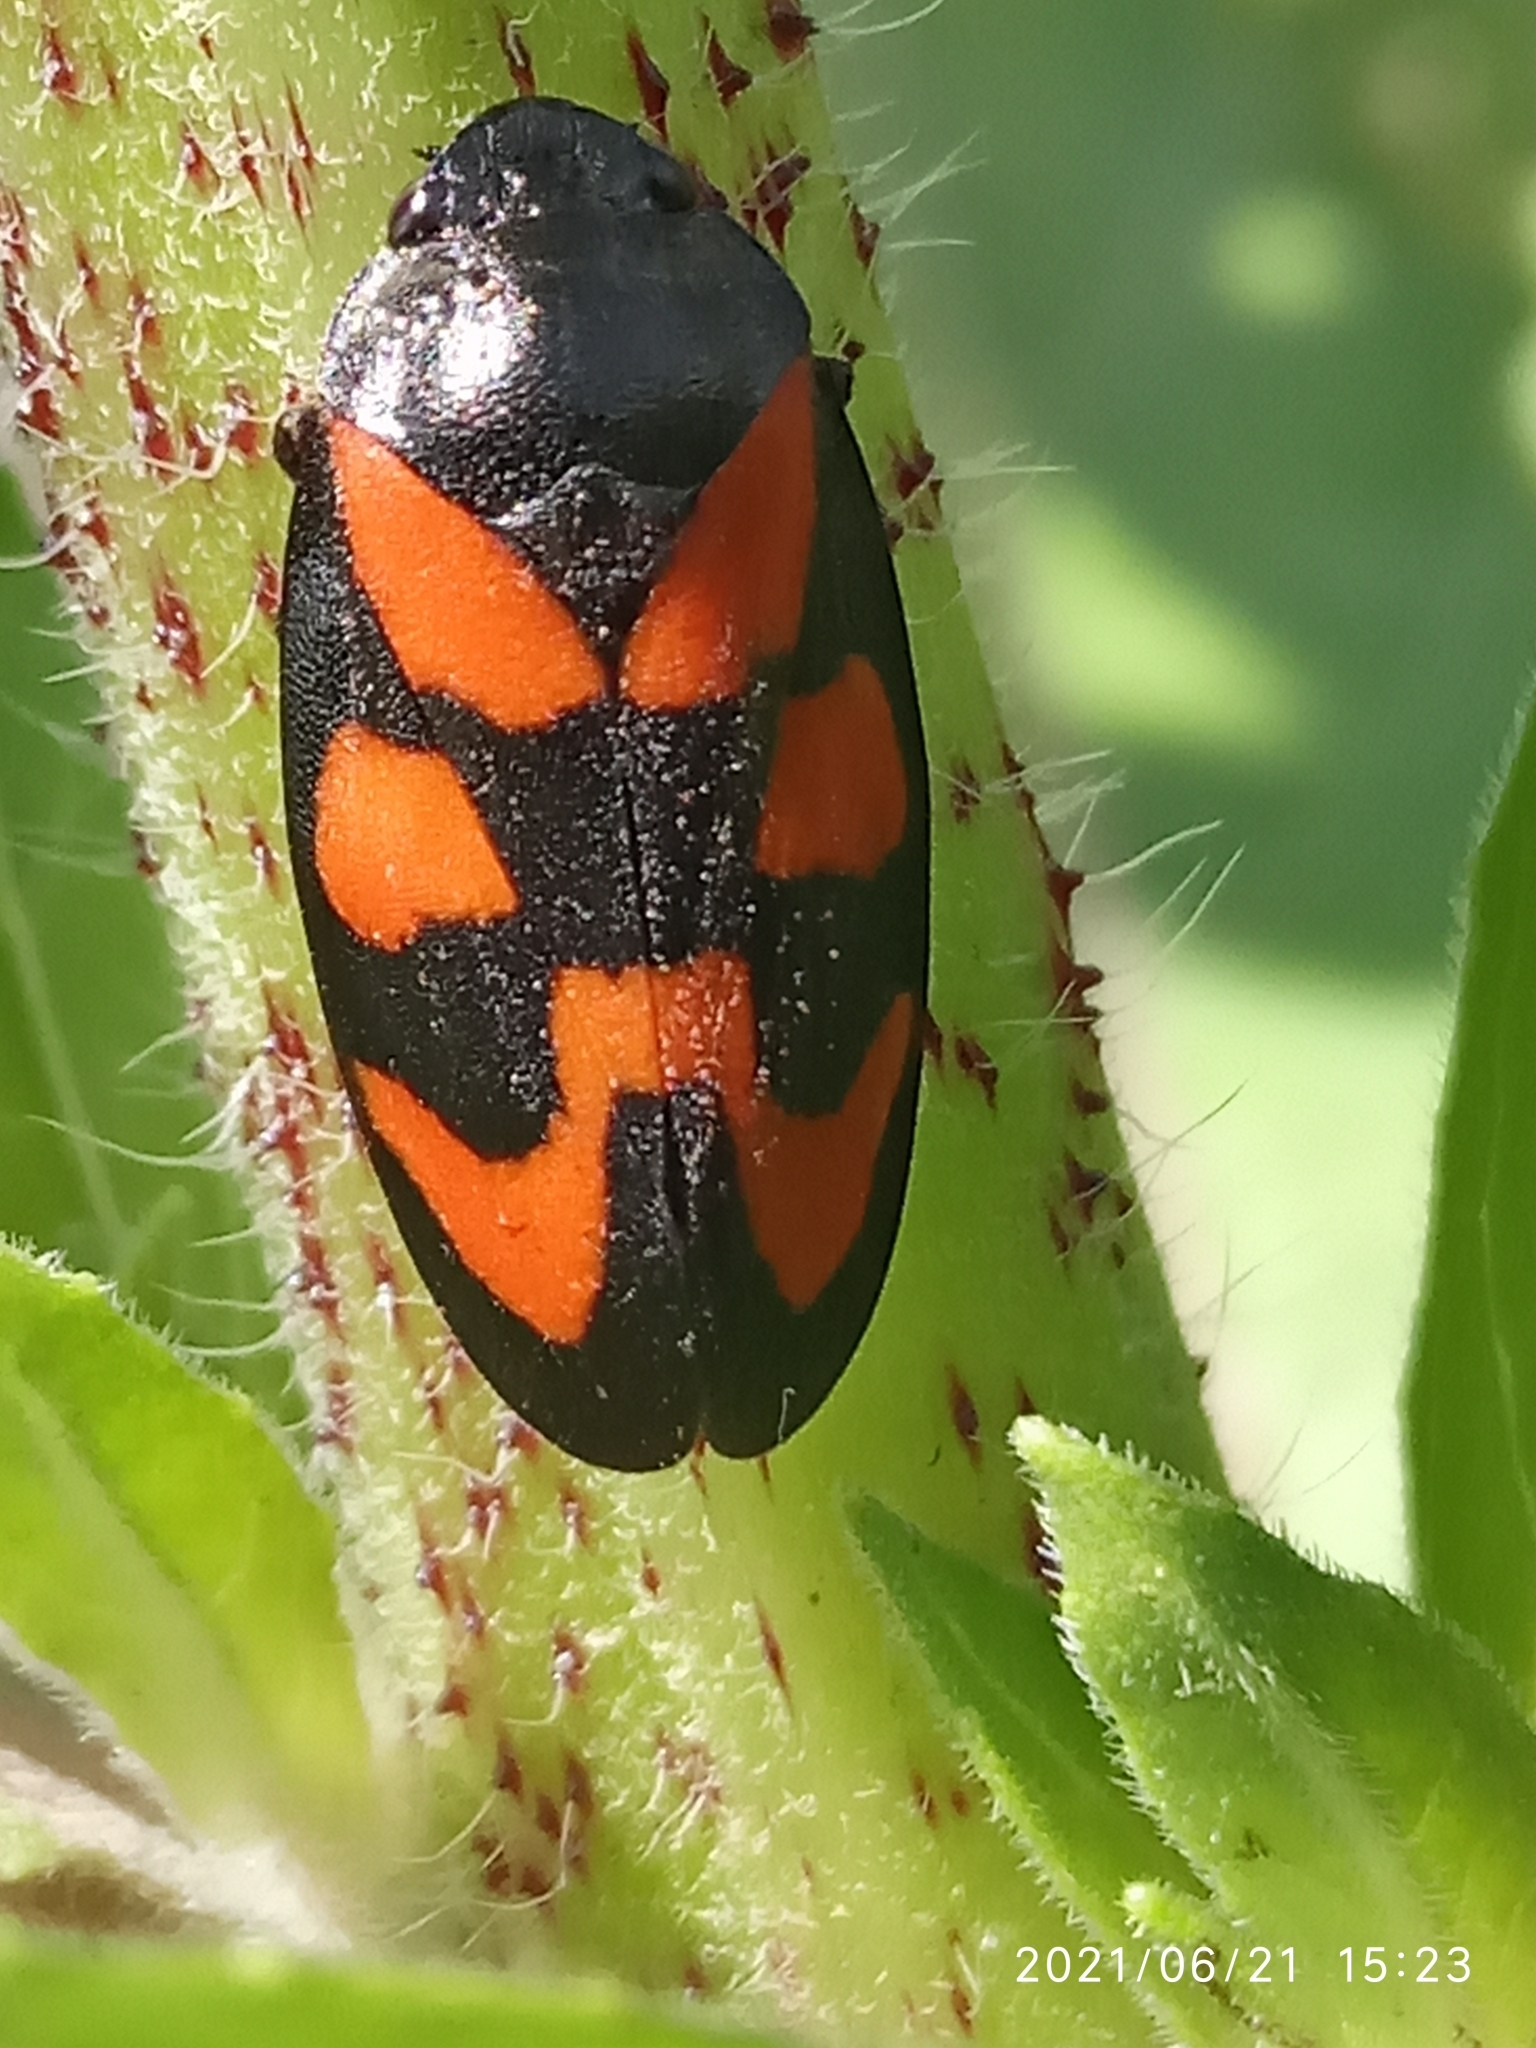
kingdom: Animalia
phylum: Arthropoda
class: Insecta
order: Hemiptera
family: Cercopidae
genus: Cercopis
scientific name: Cercopis vulnerata
